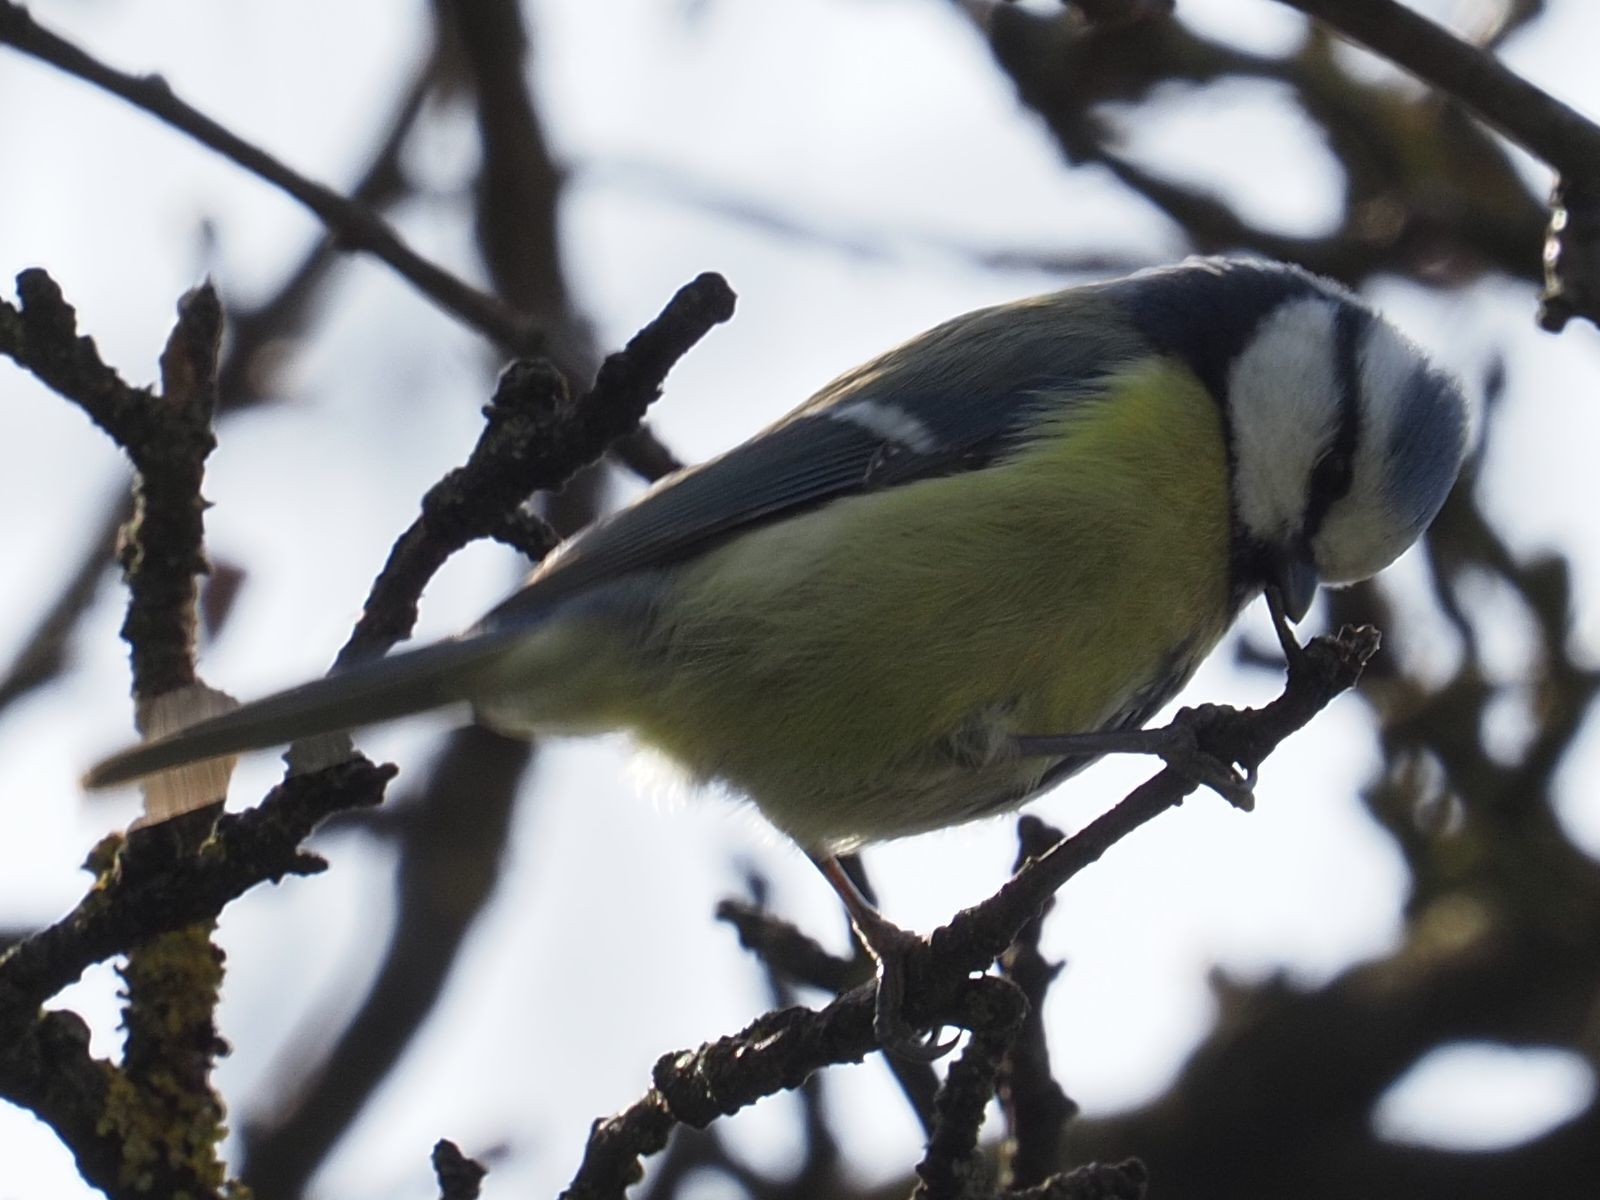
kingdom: Animalia
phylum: Chordata
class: Aves
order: Passeriformes
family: Paridae
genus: Cyanistes
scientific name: Cyanistes caeruleus
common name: Eurasian blue tit
